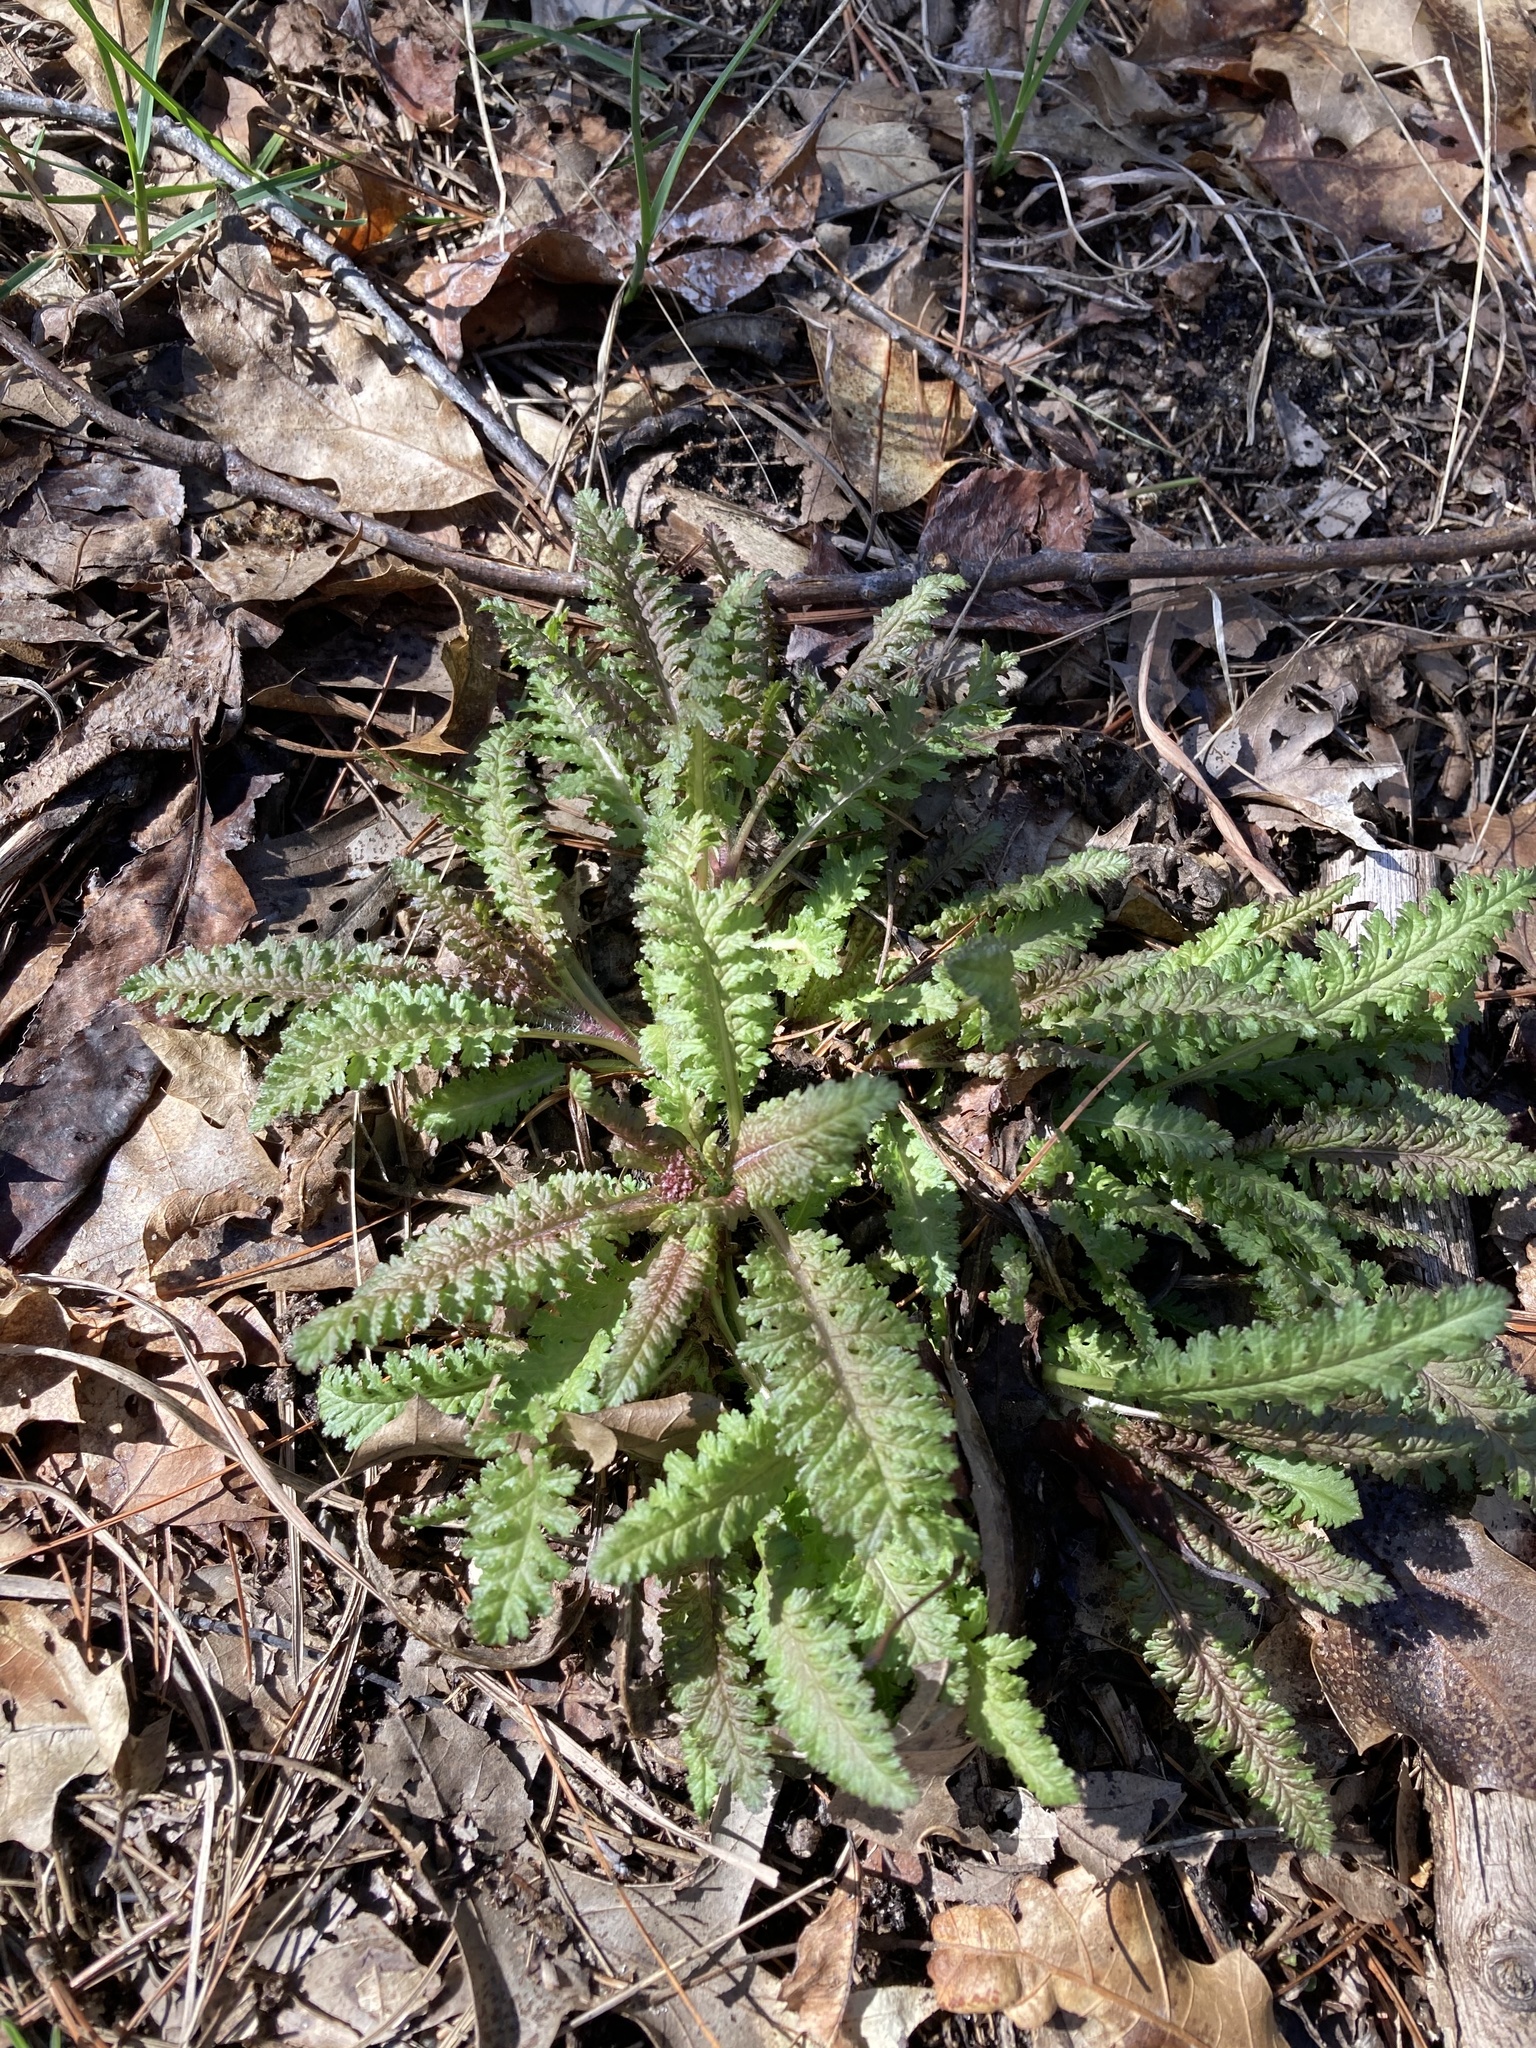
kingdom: Plantae
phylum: Tracheophyta
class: Magnoliopsida
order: Lamiales
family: Orobanchaceae
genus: Pedicularis
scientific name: Pedicularis canadensis
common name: Early lousewort
